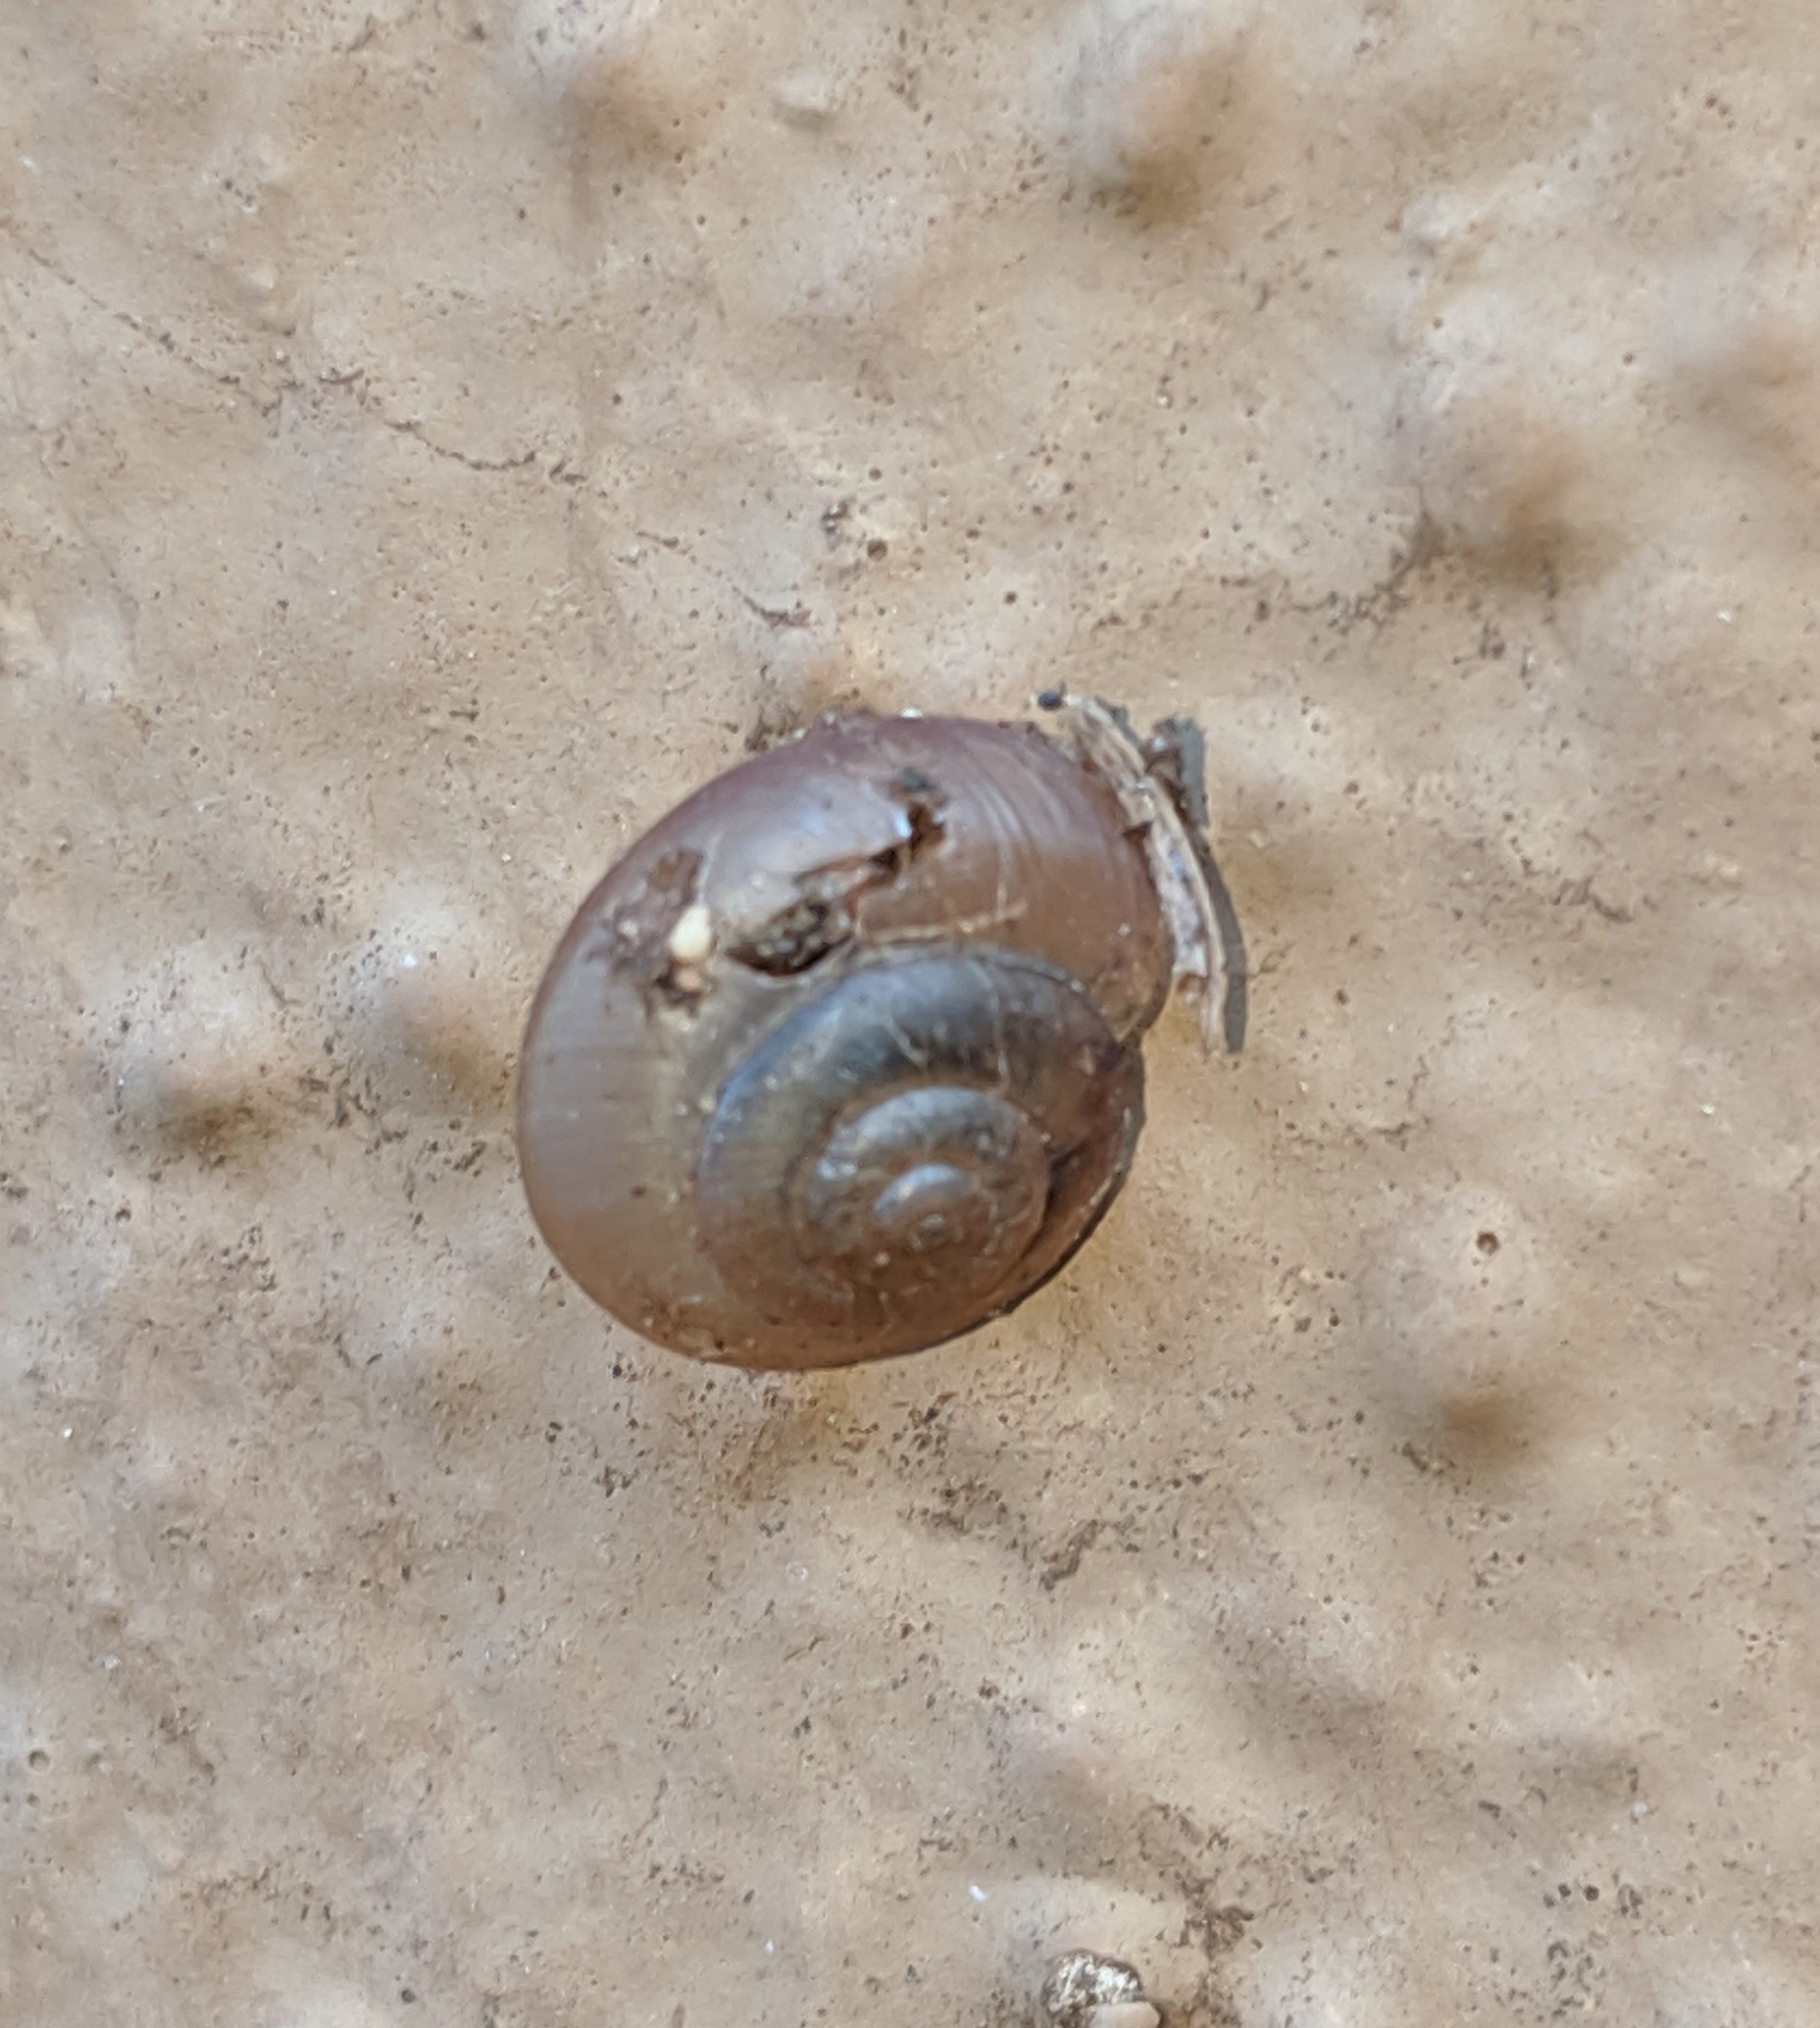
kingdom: Animalia
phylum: Mollusca
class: Gastropoda
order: Stylommatophora
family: Camaenidae
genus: Bradybaena
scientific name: Bradybaena similaris
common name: Asian trampsnail
